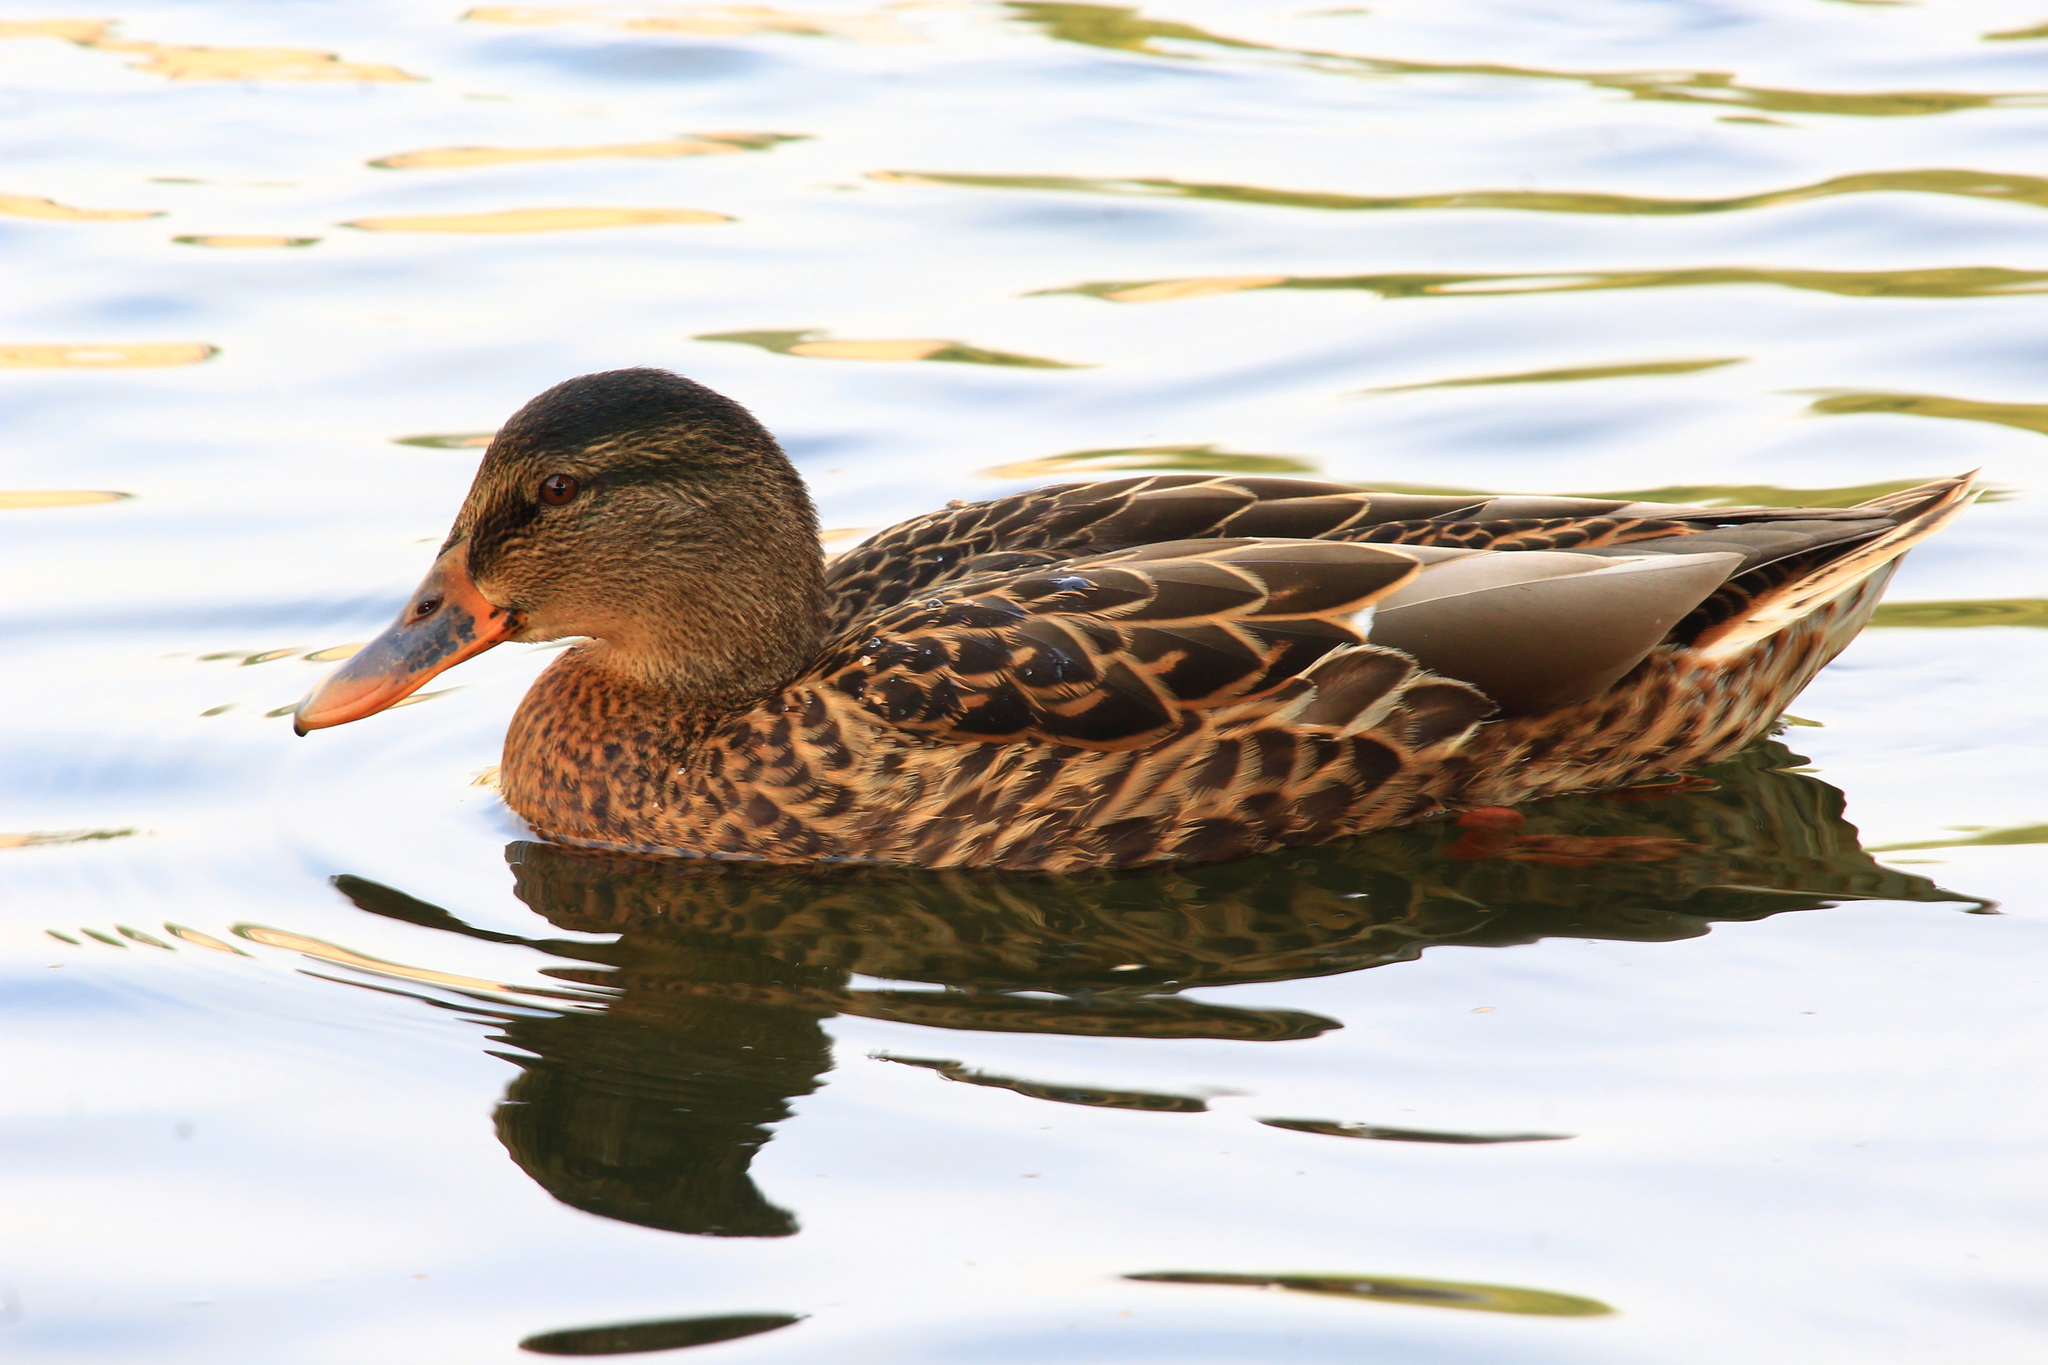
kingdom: Animalia
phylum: Chordata
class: Aves
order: Anseriformes
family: Anatidae
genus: Anas
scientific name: Anas platyrhynchos
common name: Mallard
